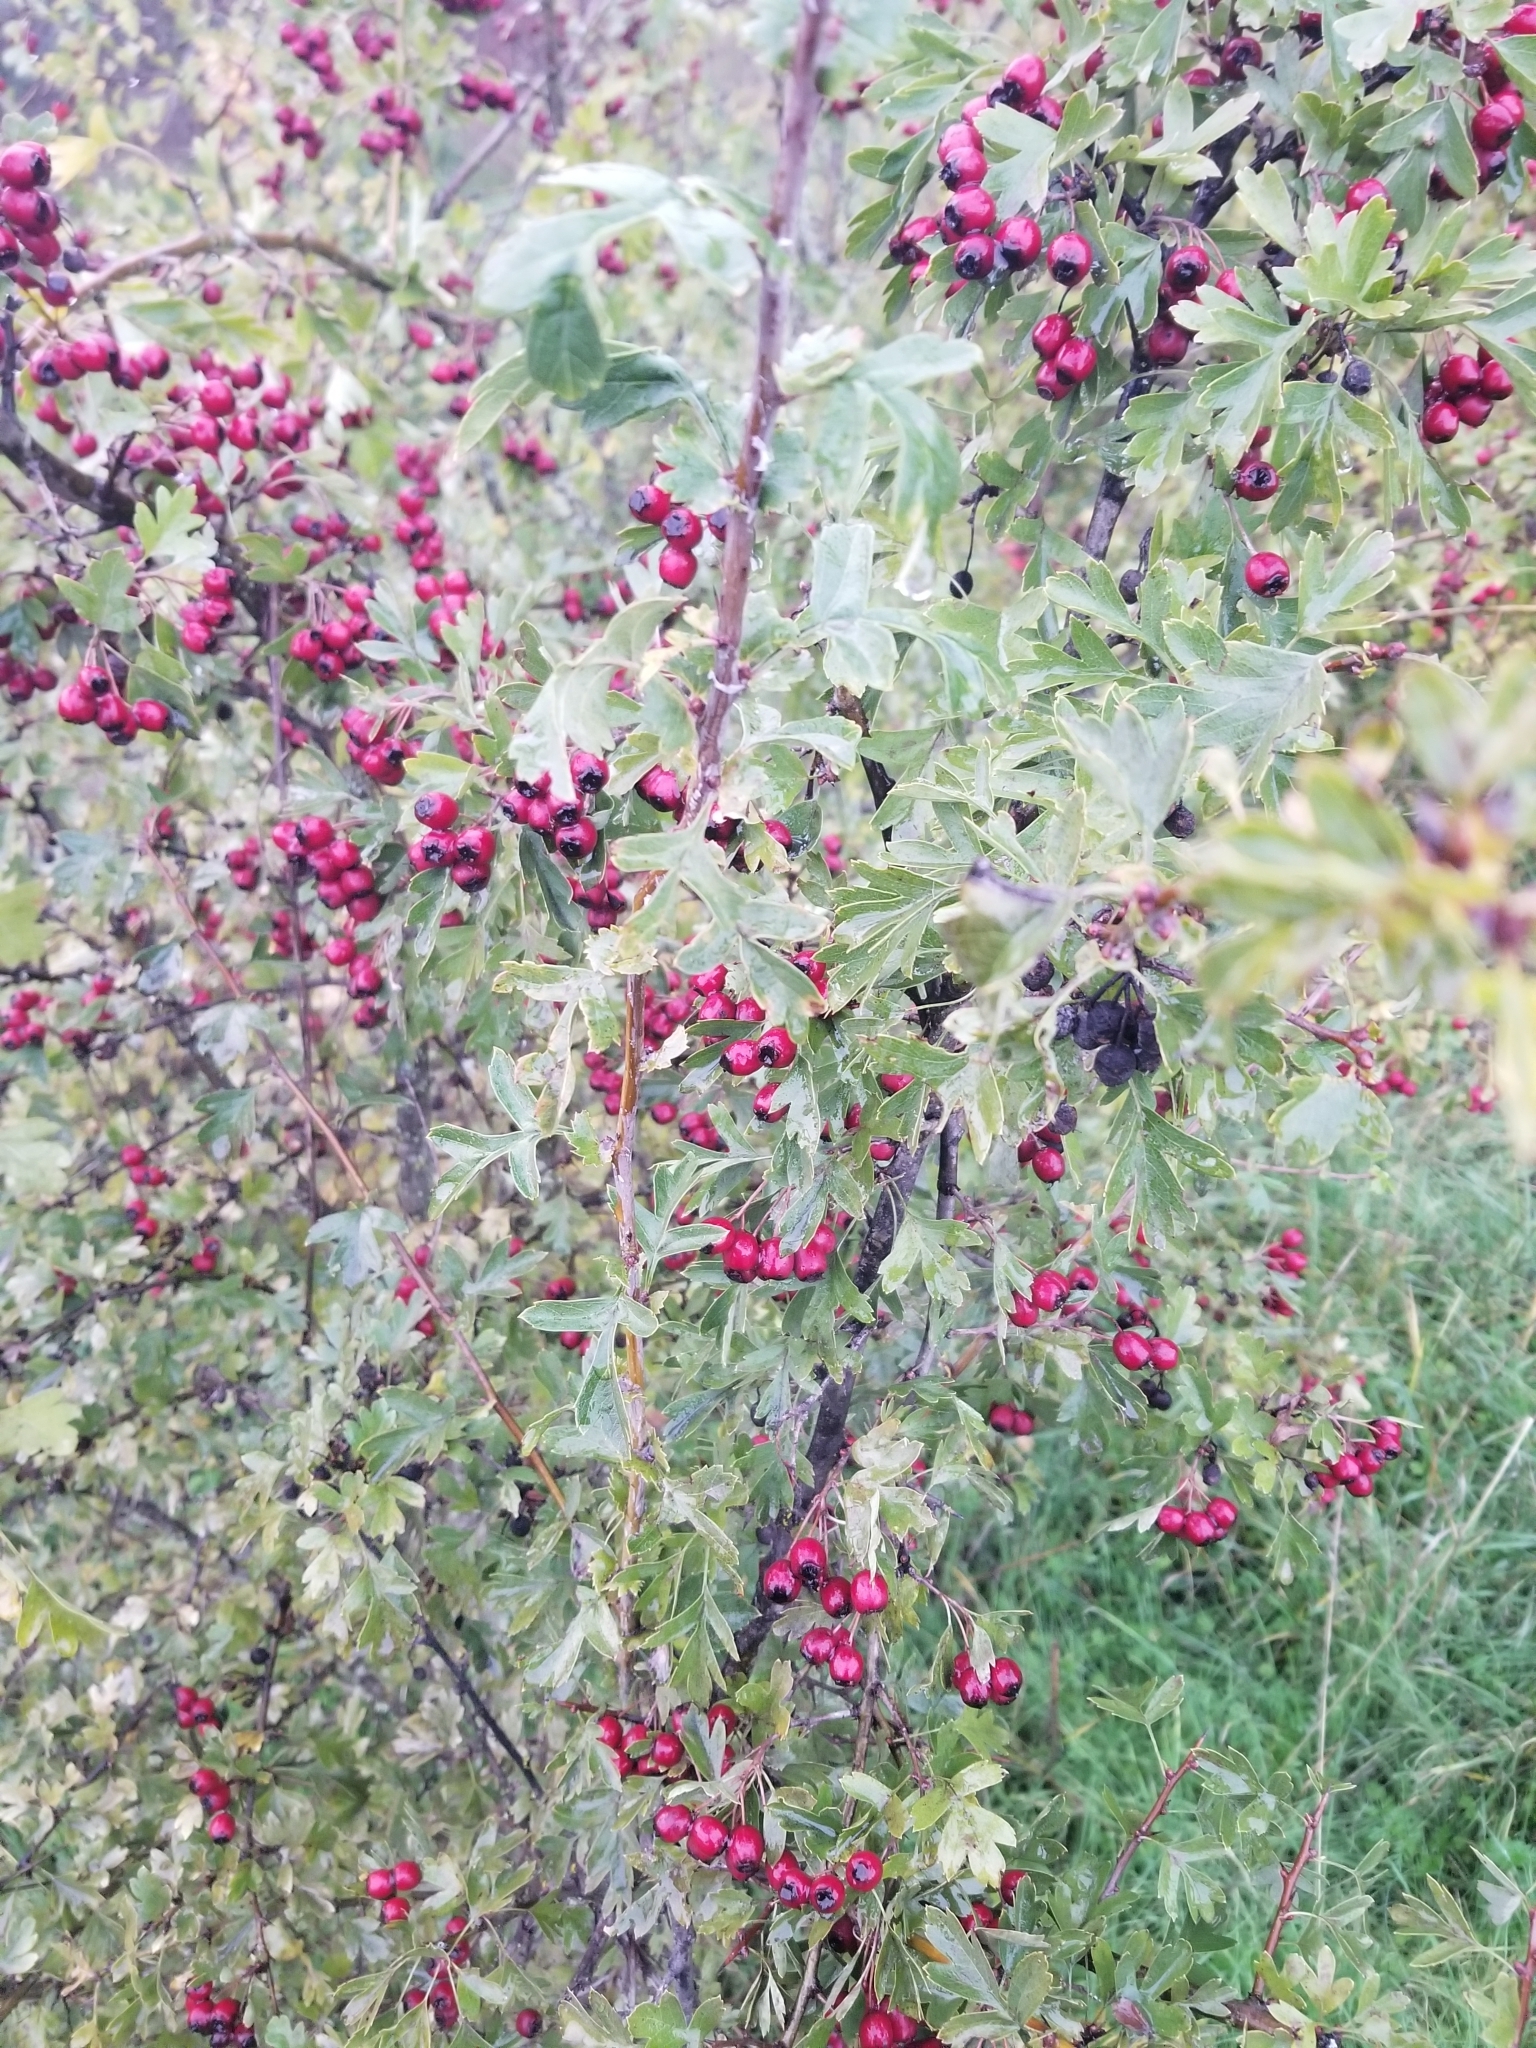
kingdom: Plantae
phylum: Tracheophyta
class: Magnoliopsida
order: Rosales
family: Rosaceae
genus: Crataegus
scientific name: Crataegus monogyna
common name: Hawthorn
